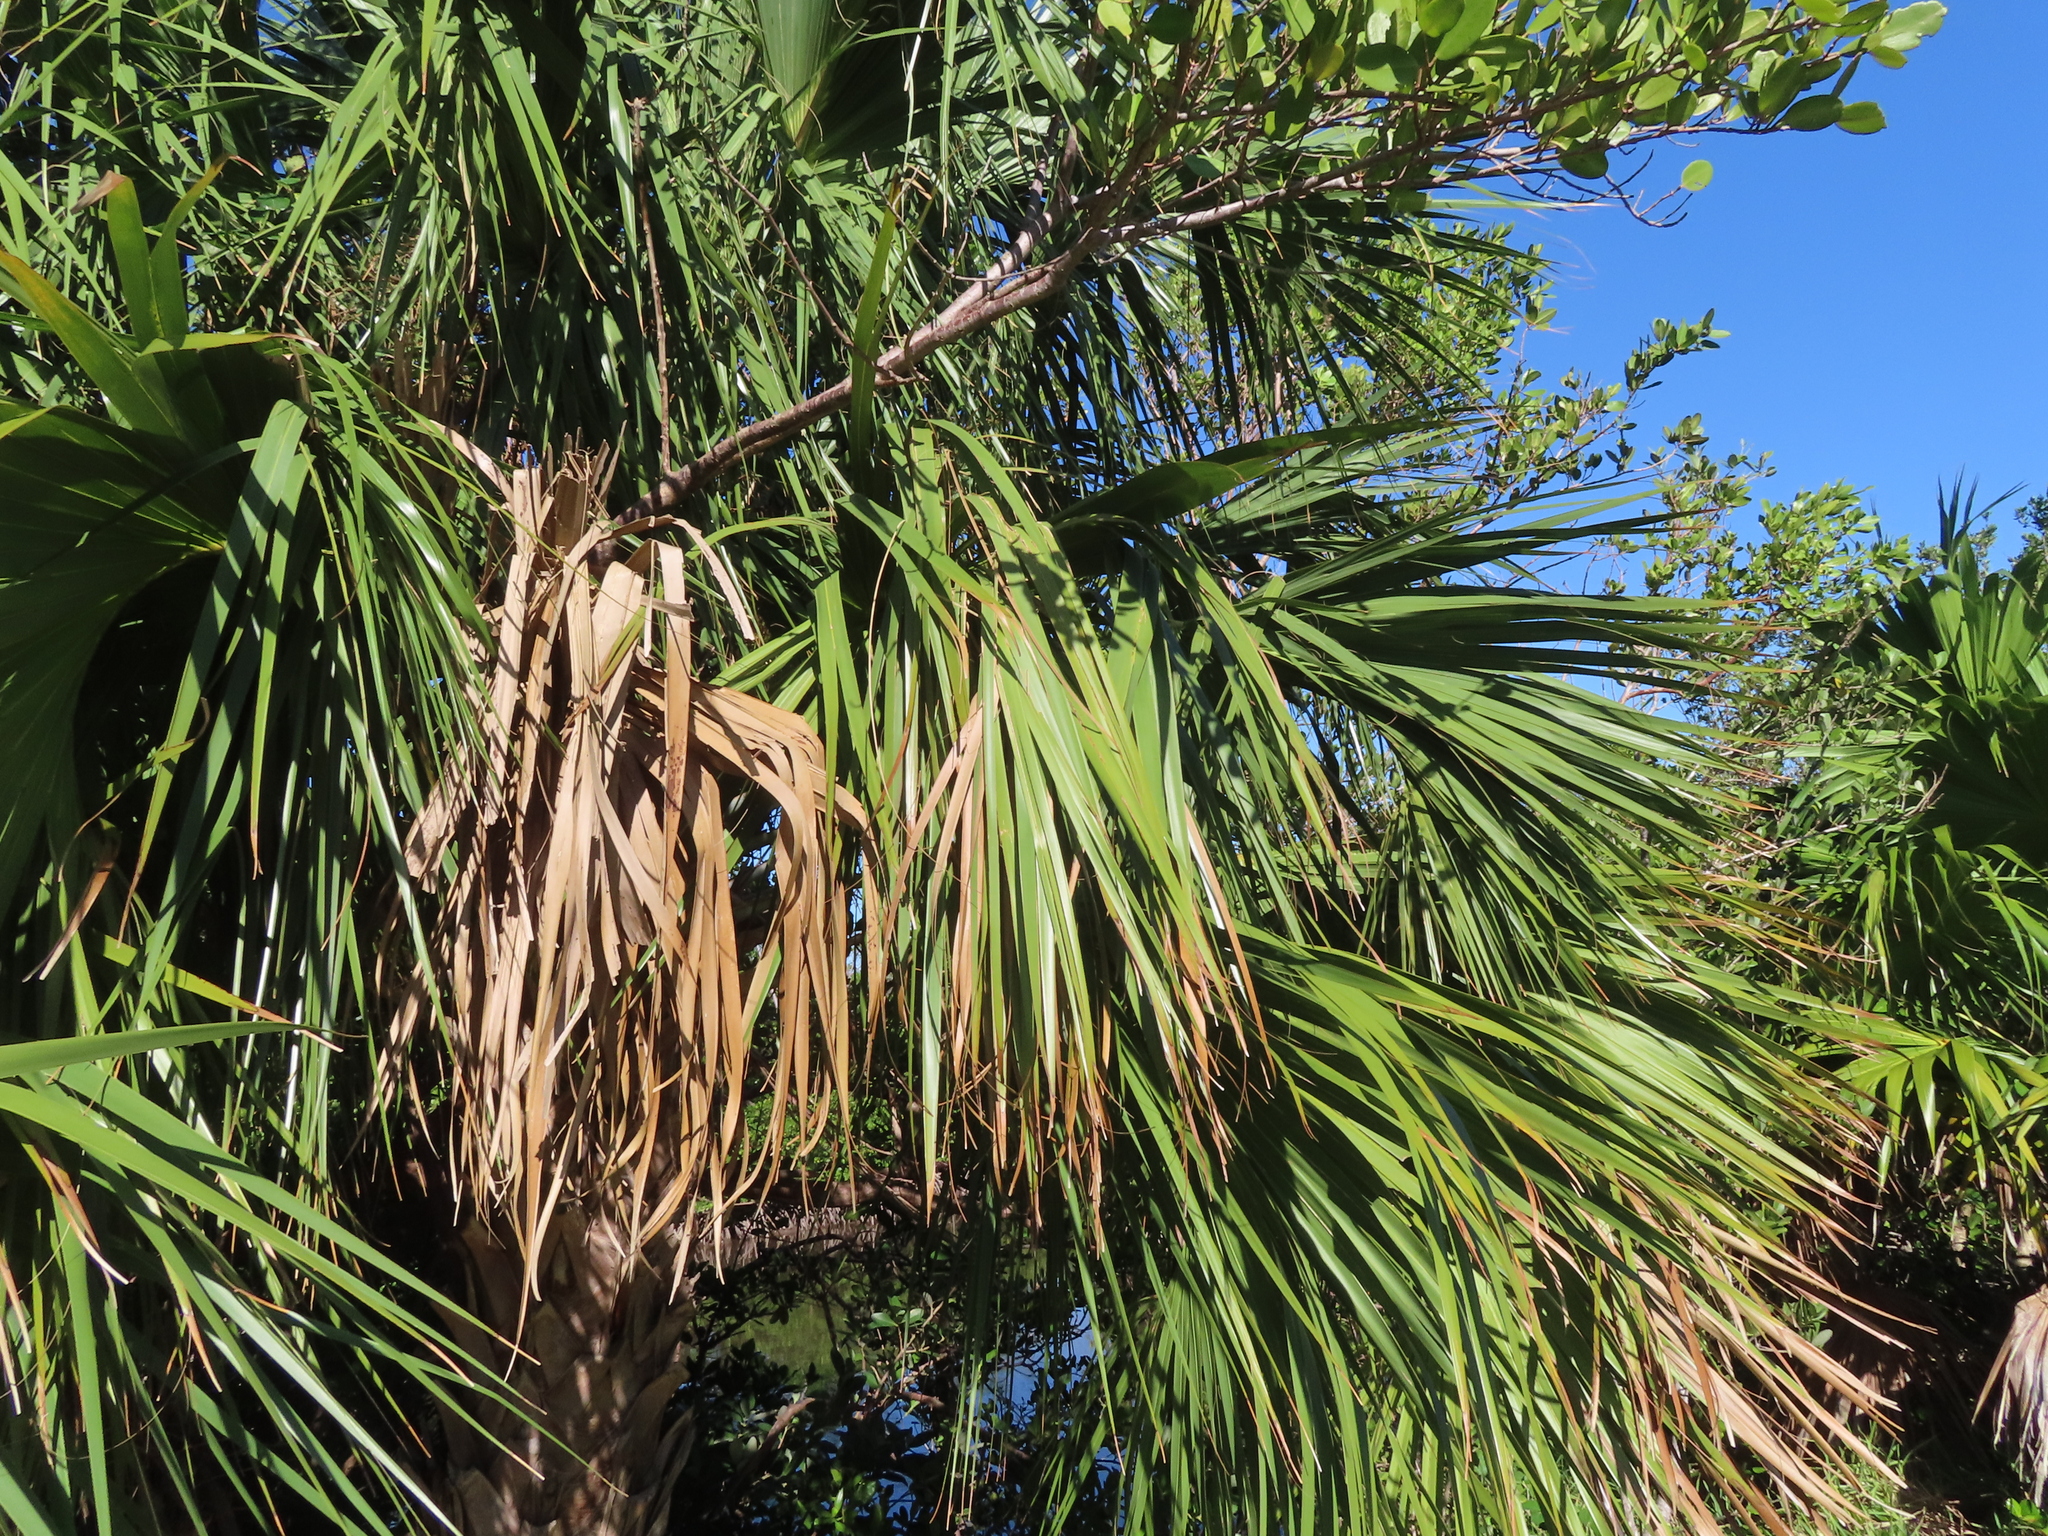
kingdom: Plantae
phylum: Tracheophyta
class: Liliopsida
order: Arecales
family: Arecaceae
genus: Sabal
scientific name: Sabal palmetto
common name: Blue palmetto
